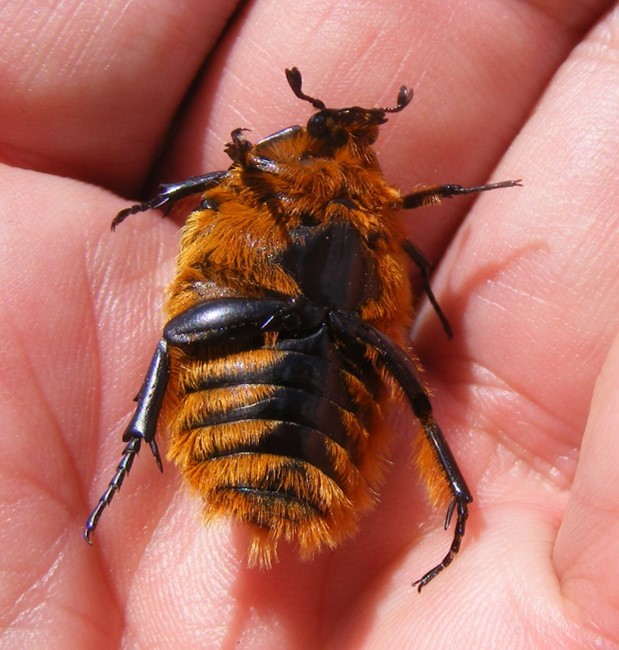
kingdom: Animalia
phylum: Arthropoda
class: Insecta
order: Coleoptera
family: Scarabaeidae
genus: Trichostetha
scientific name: Trichostetha fascicularis
